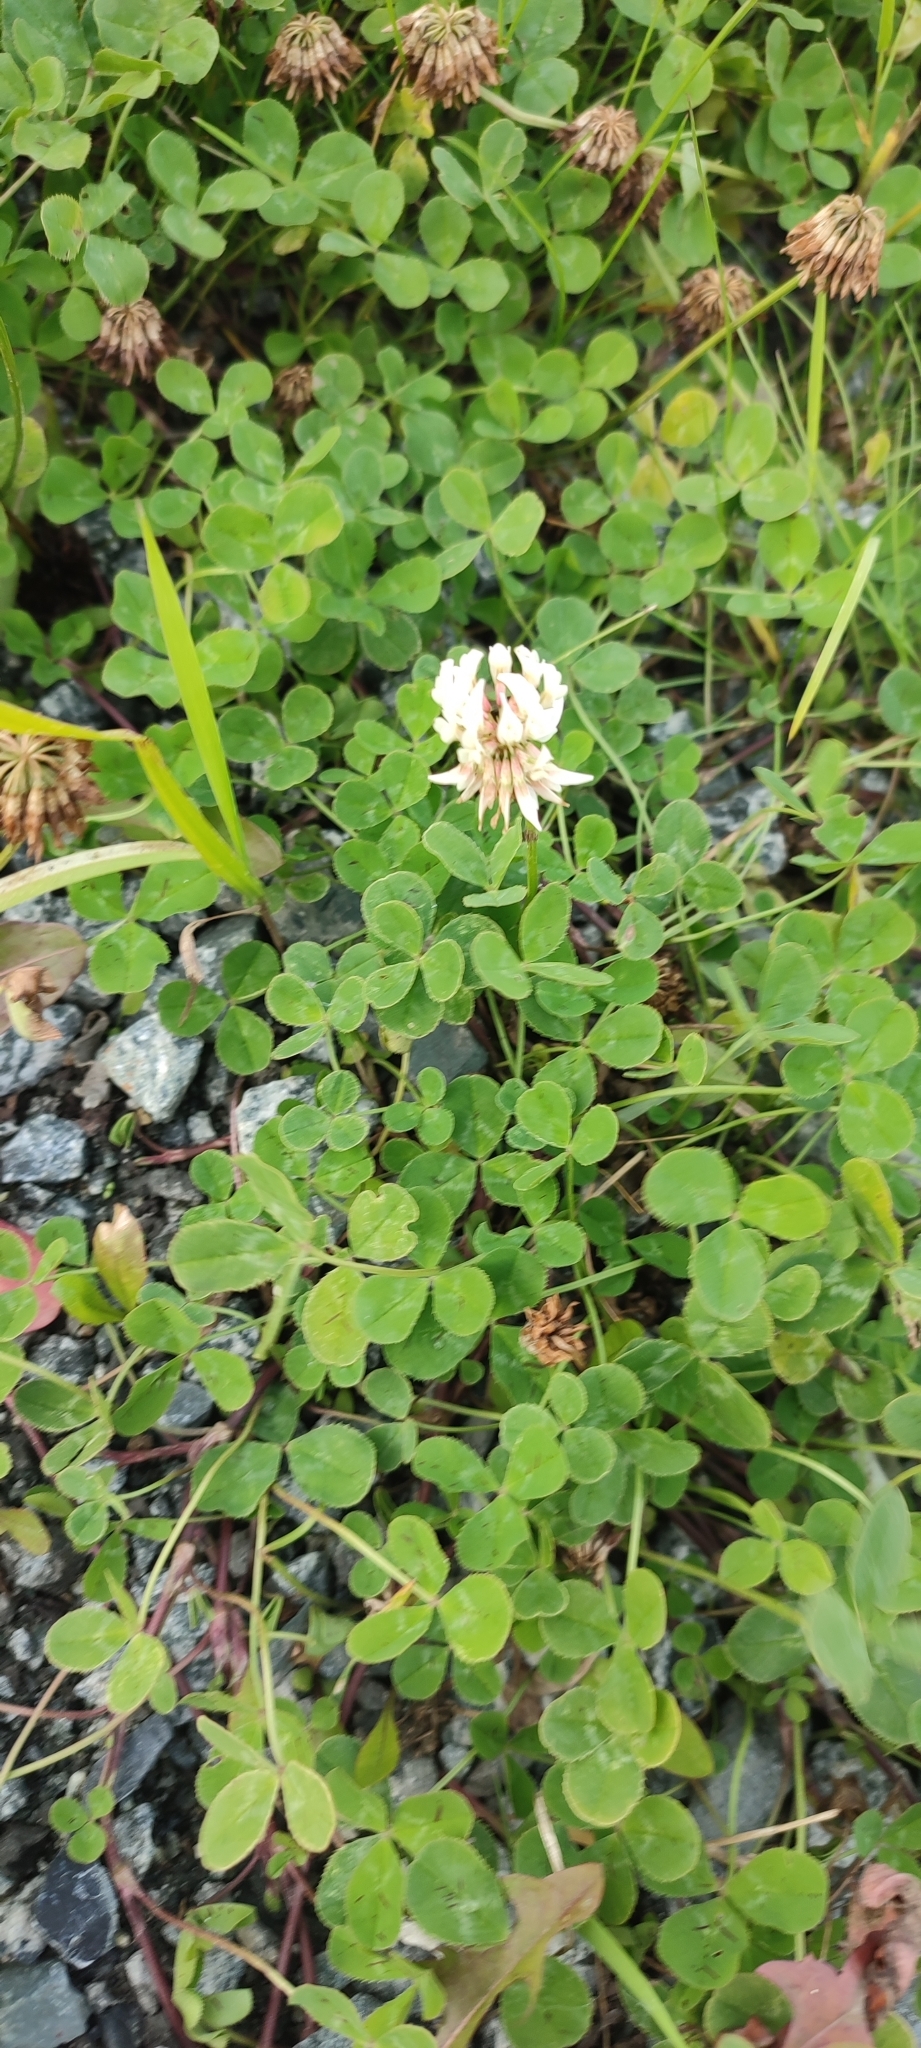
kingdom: Plantae
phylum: Tracheophyta
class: Magnoliopsida
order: Fabales
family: Fabaceae
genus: Trifolium
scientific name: Trifolium repens
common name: White clover
